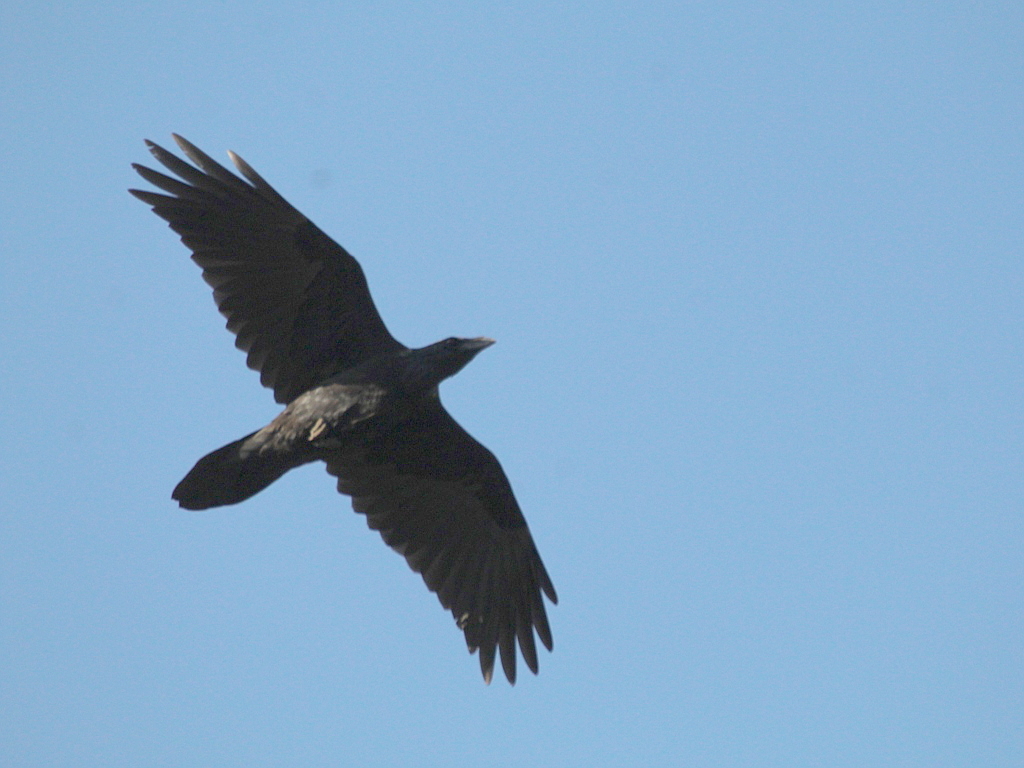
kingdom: Animalia
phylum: Chordata
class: Aves
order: Passeriformes
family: Corvidae
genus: Corvus
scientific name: Corvus corax
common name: Common raven
